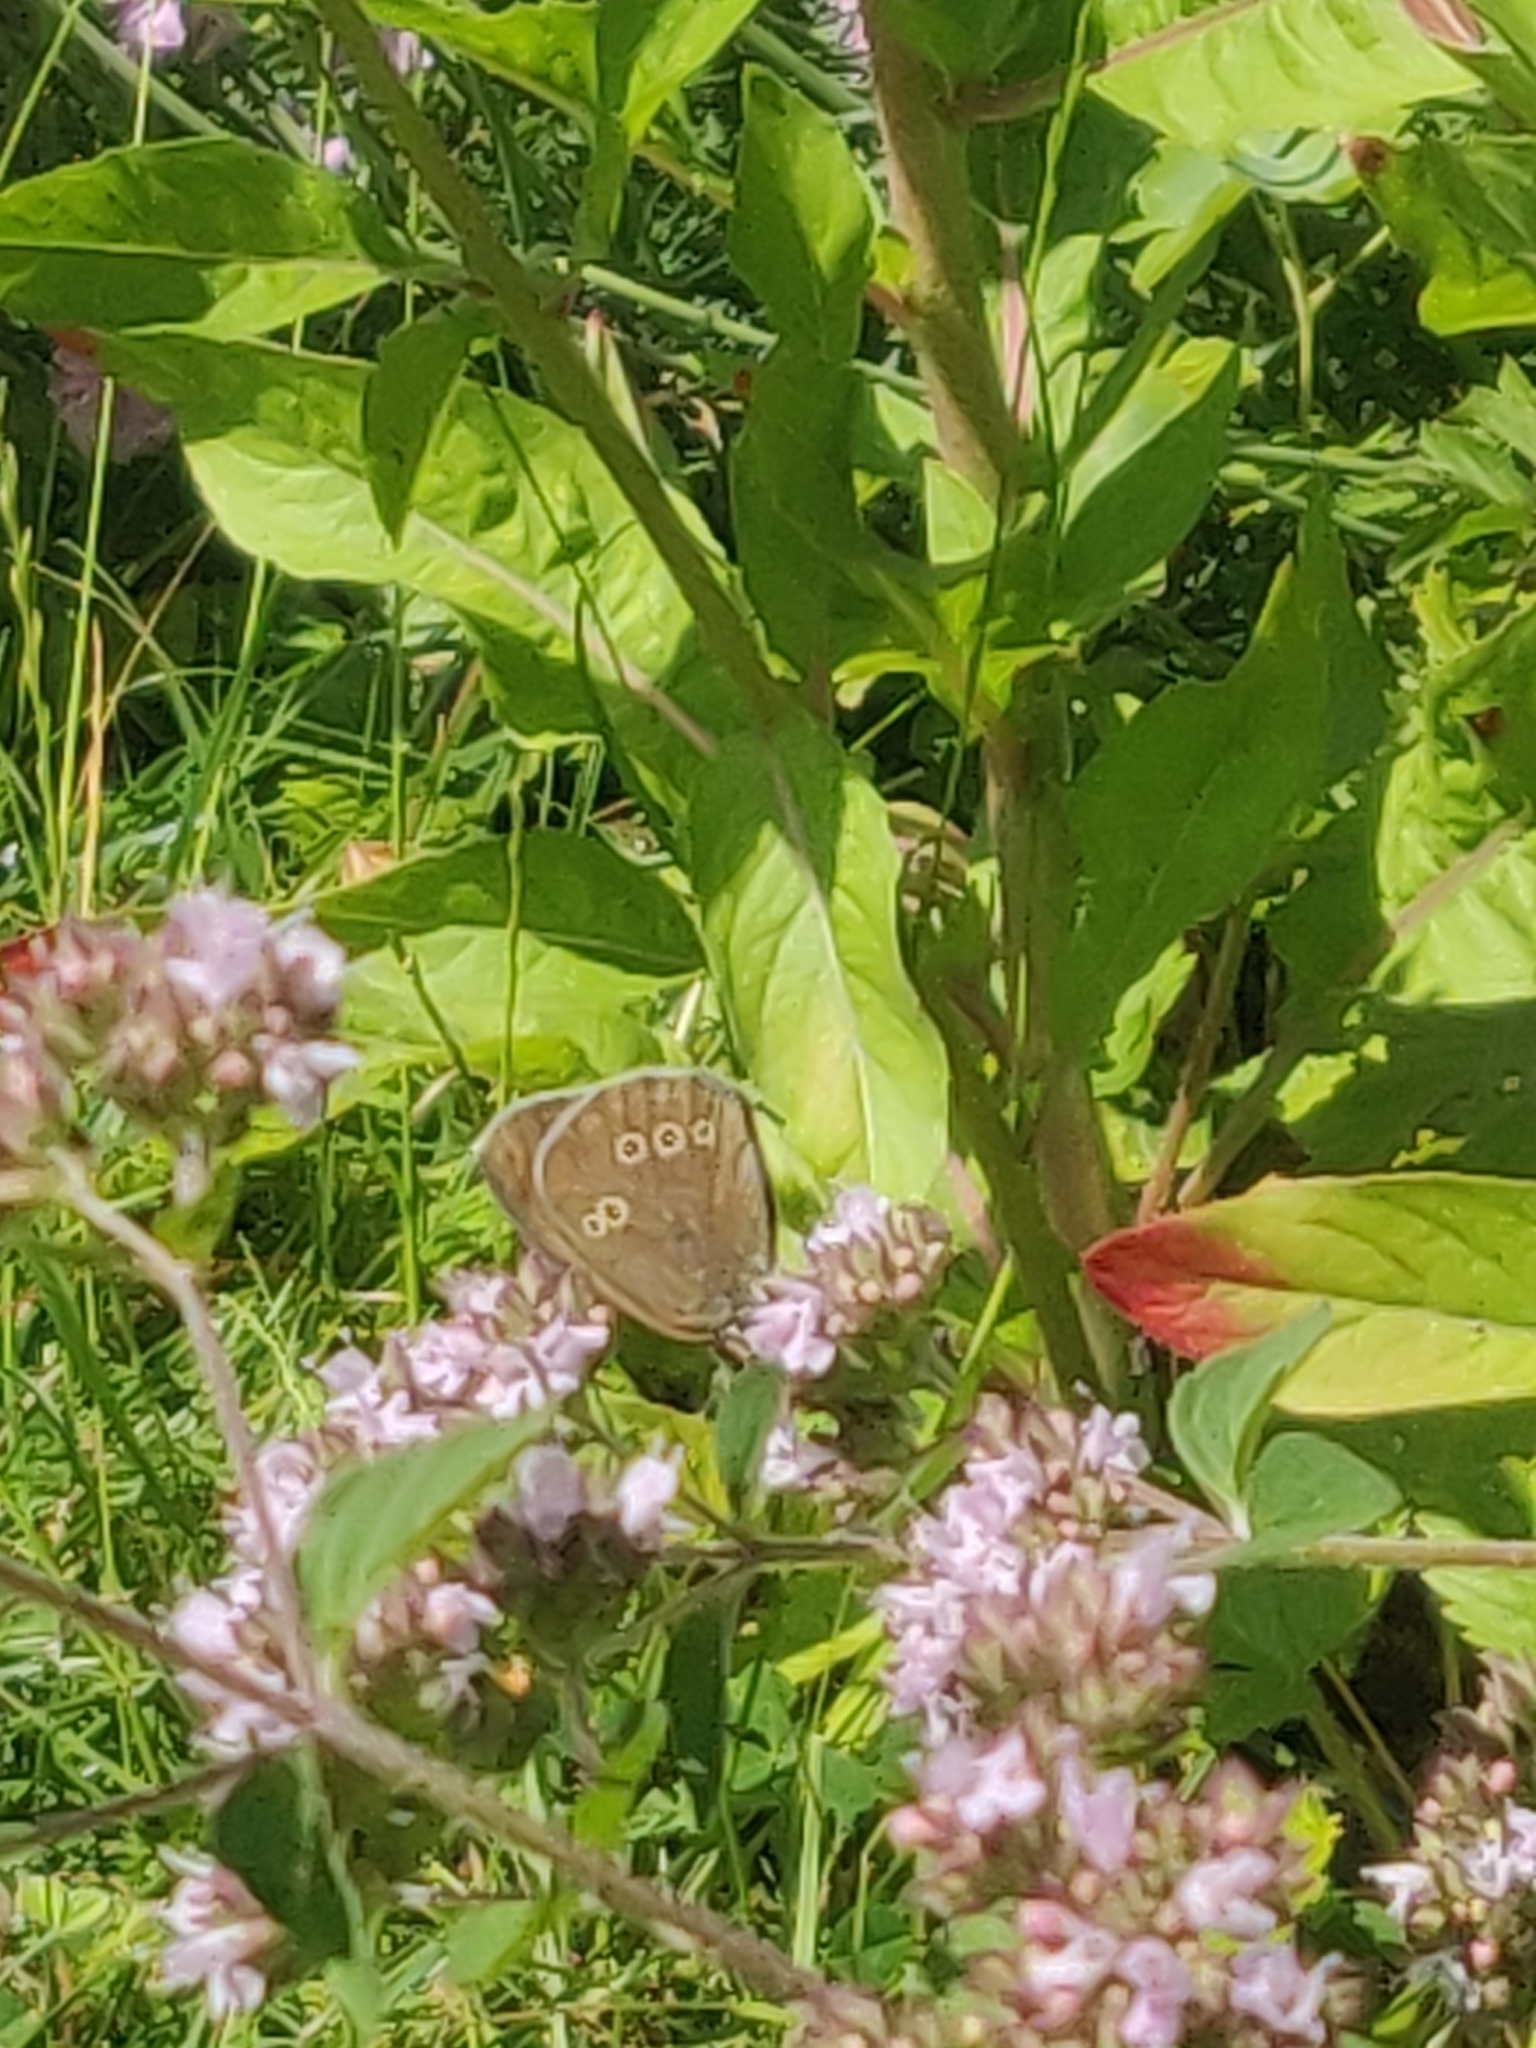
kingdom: Animalia
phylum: Arthropoda
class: Insecta
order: Lepidoptera
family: Nymphalidae
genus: Aphantopus
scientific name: Aphantopus hyperantus
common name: Ringlet
